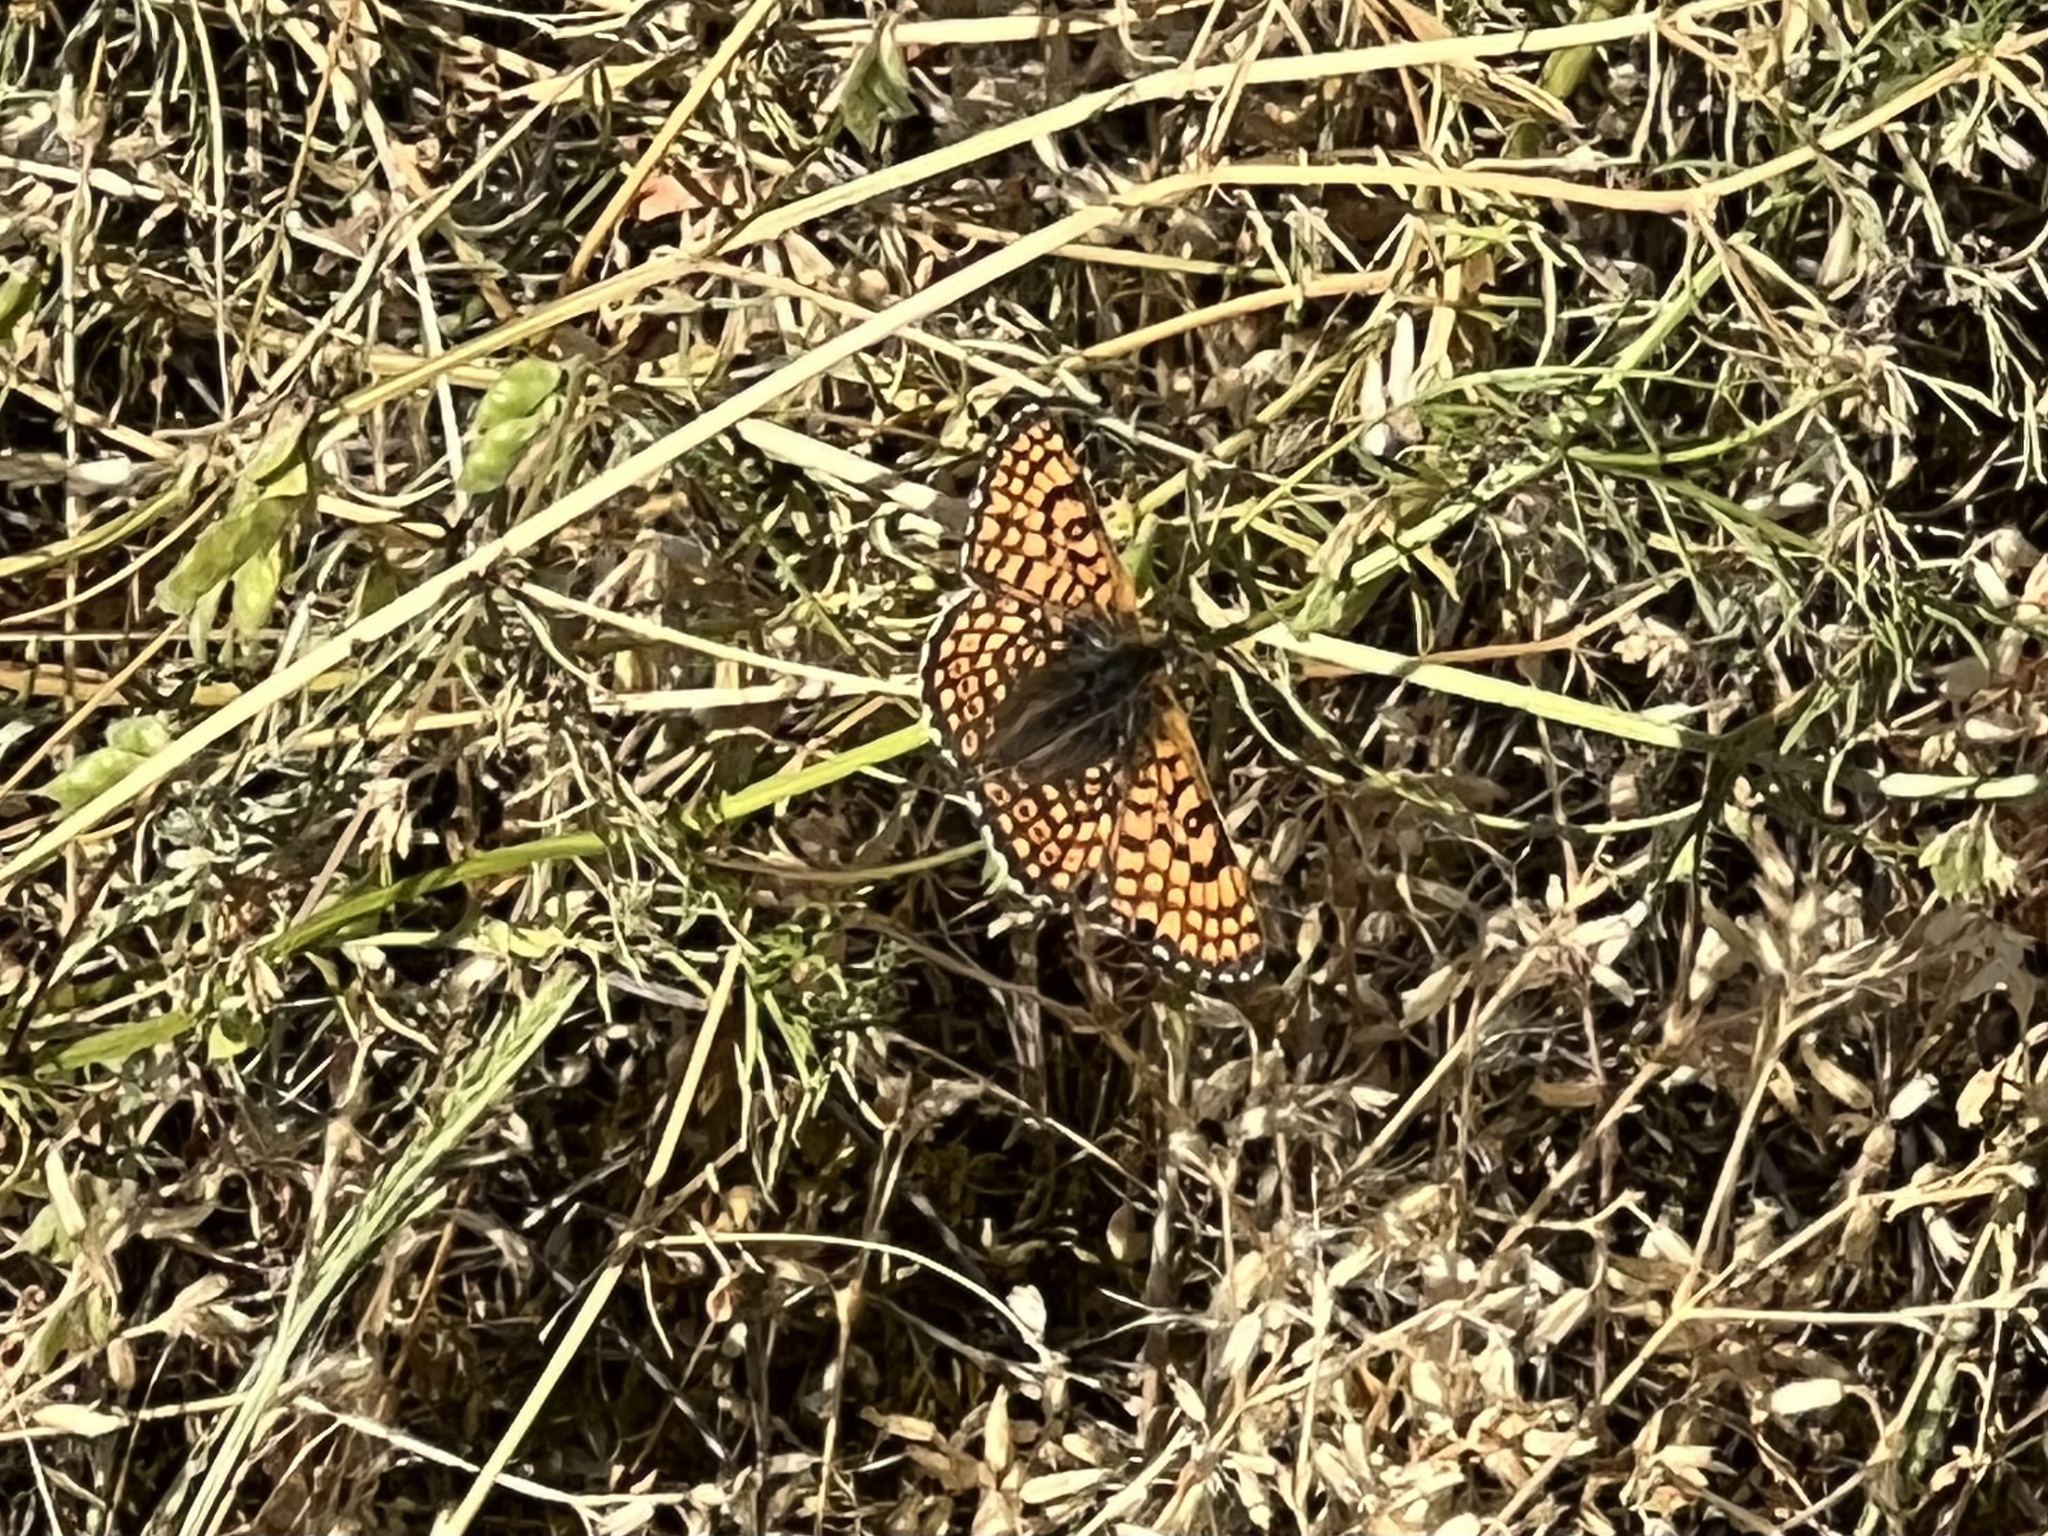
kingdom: Animalia
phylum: Arthropoda
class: Insecta
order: Lepidoptera
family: Nymphalidae
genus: Melitaea
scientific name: Melitaea cinxia
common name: Glanville fritillary
